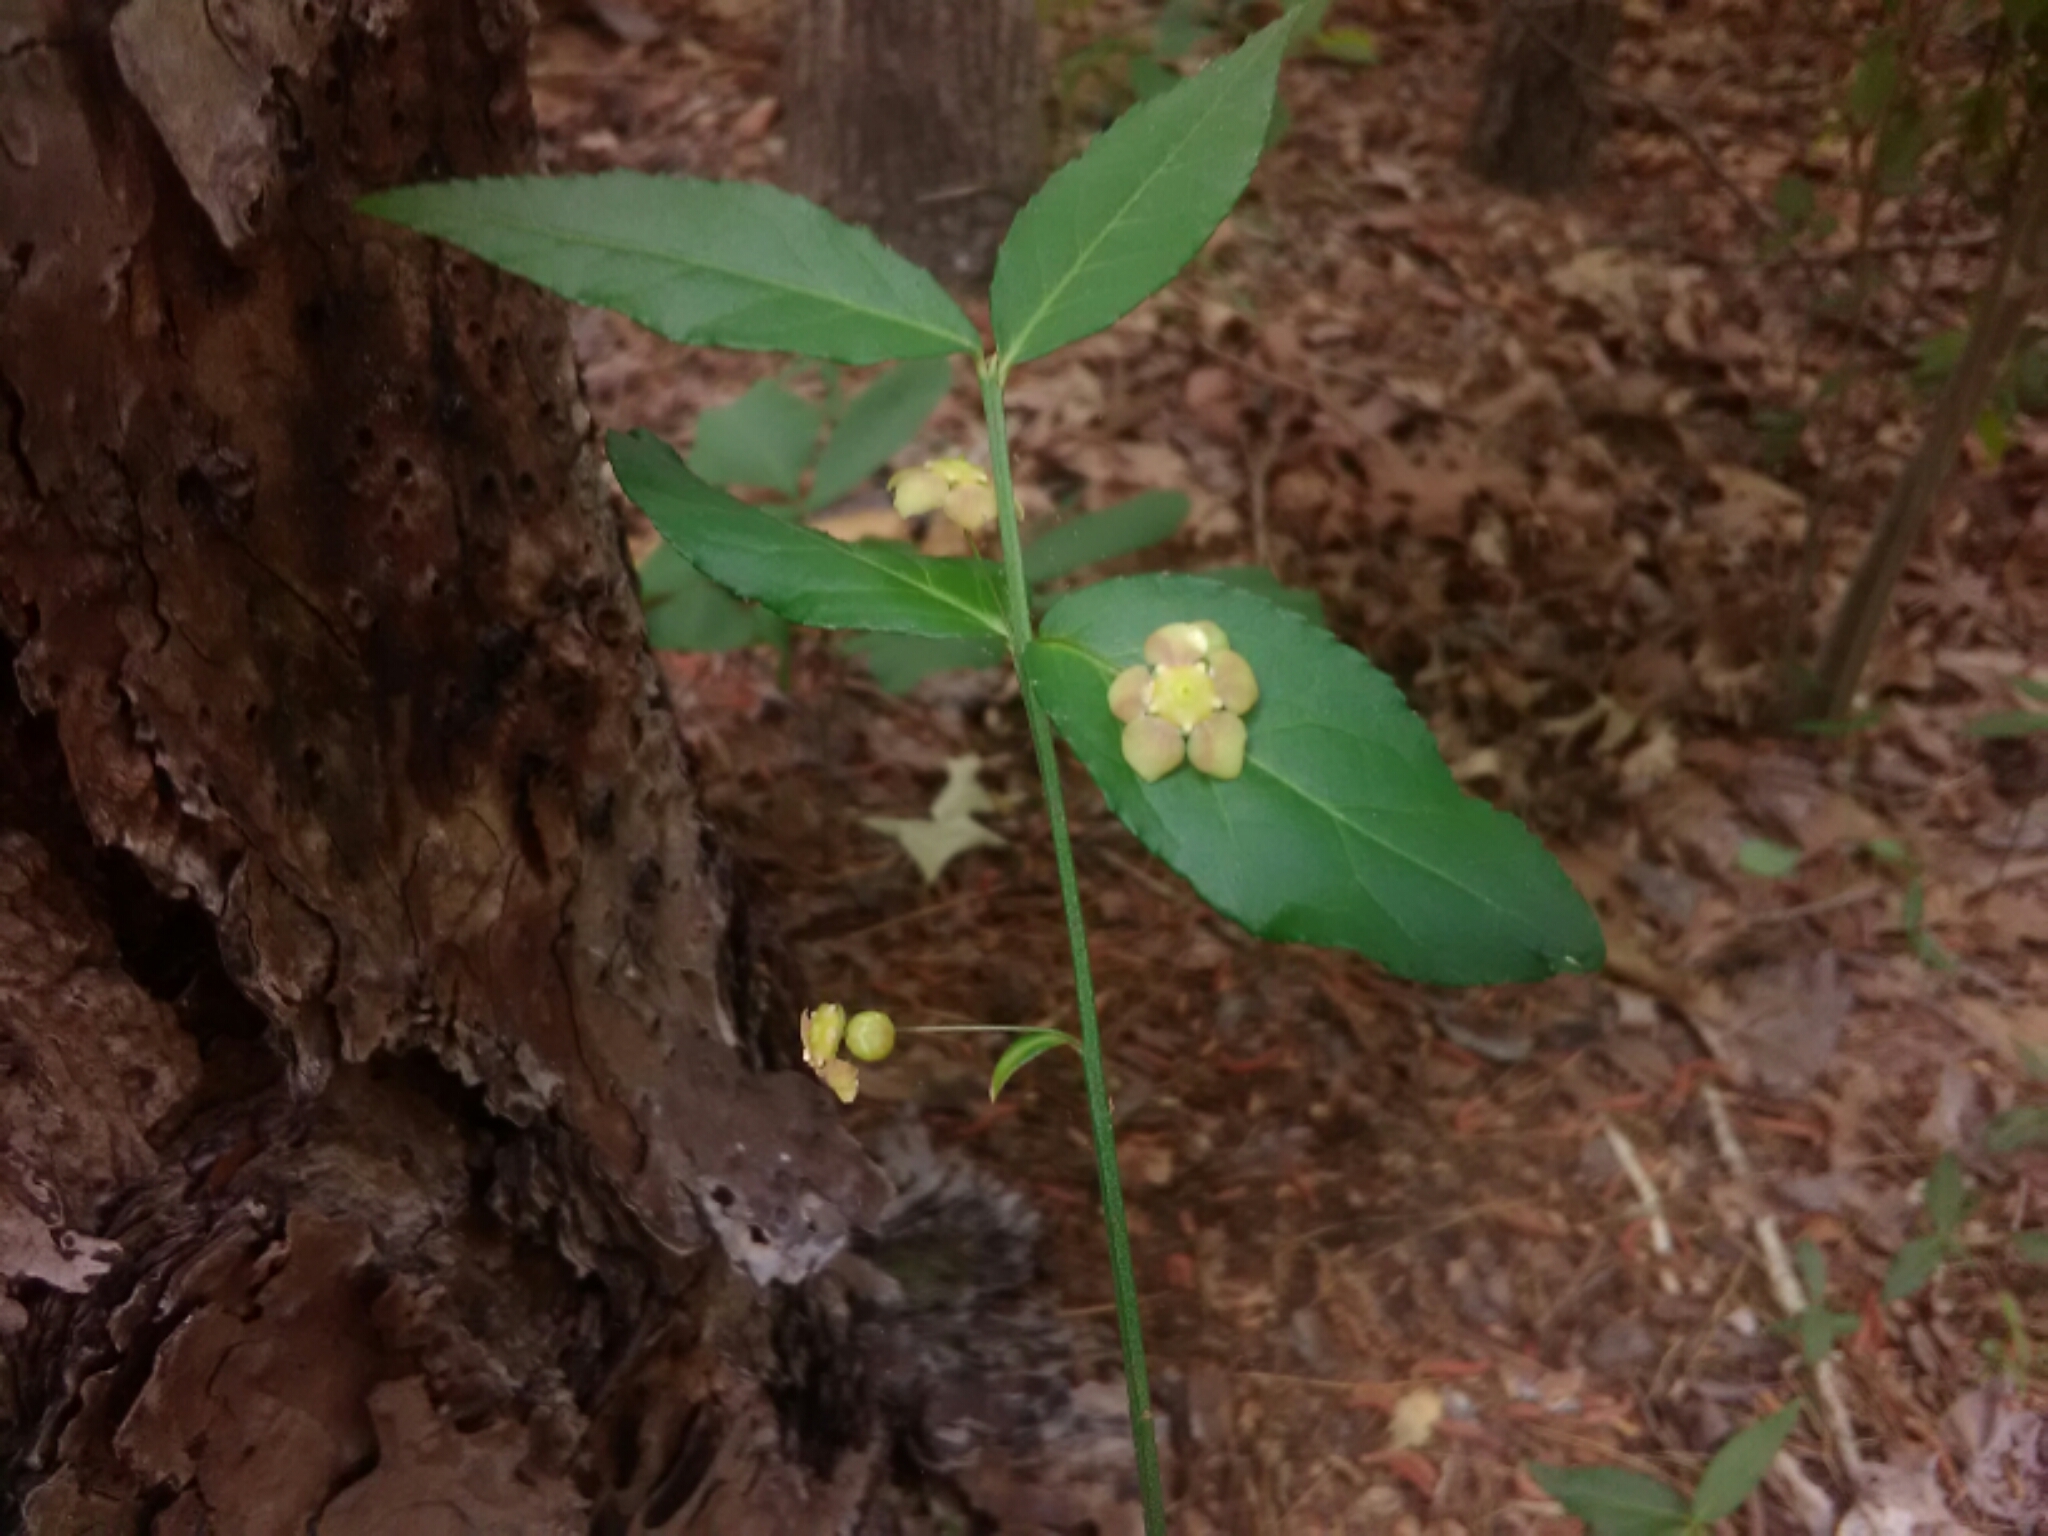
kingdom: Plantae
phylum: Tracheophyta
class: Magnoliopsida
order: Celastrales
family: Celastraceae
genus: Euonymus
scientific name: Euonymus americanus
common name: Bursting-heart
